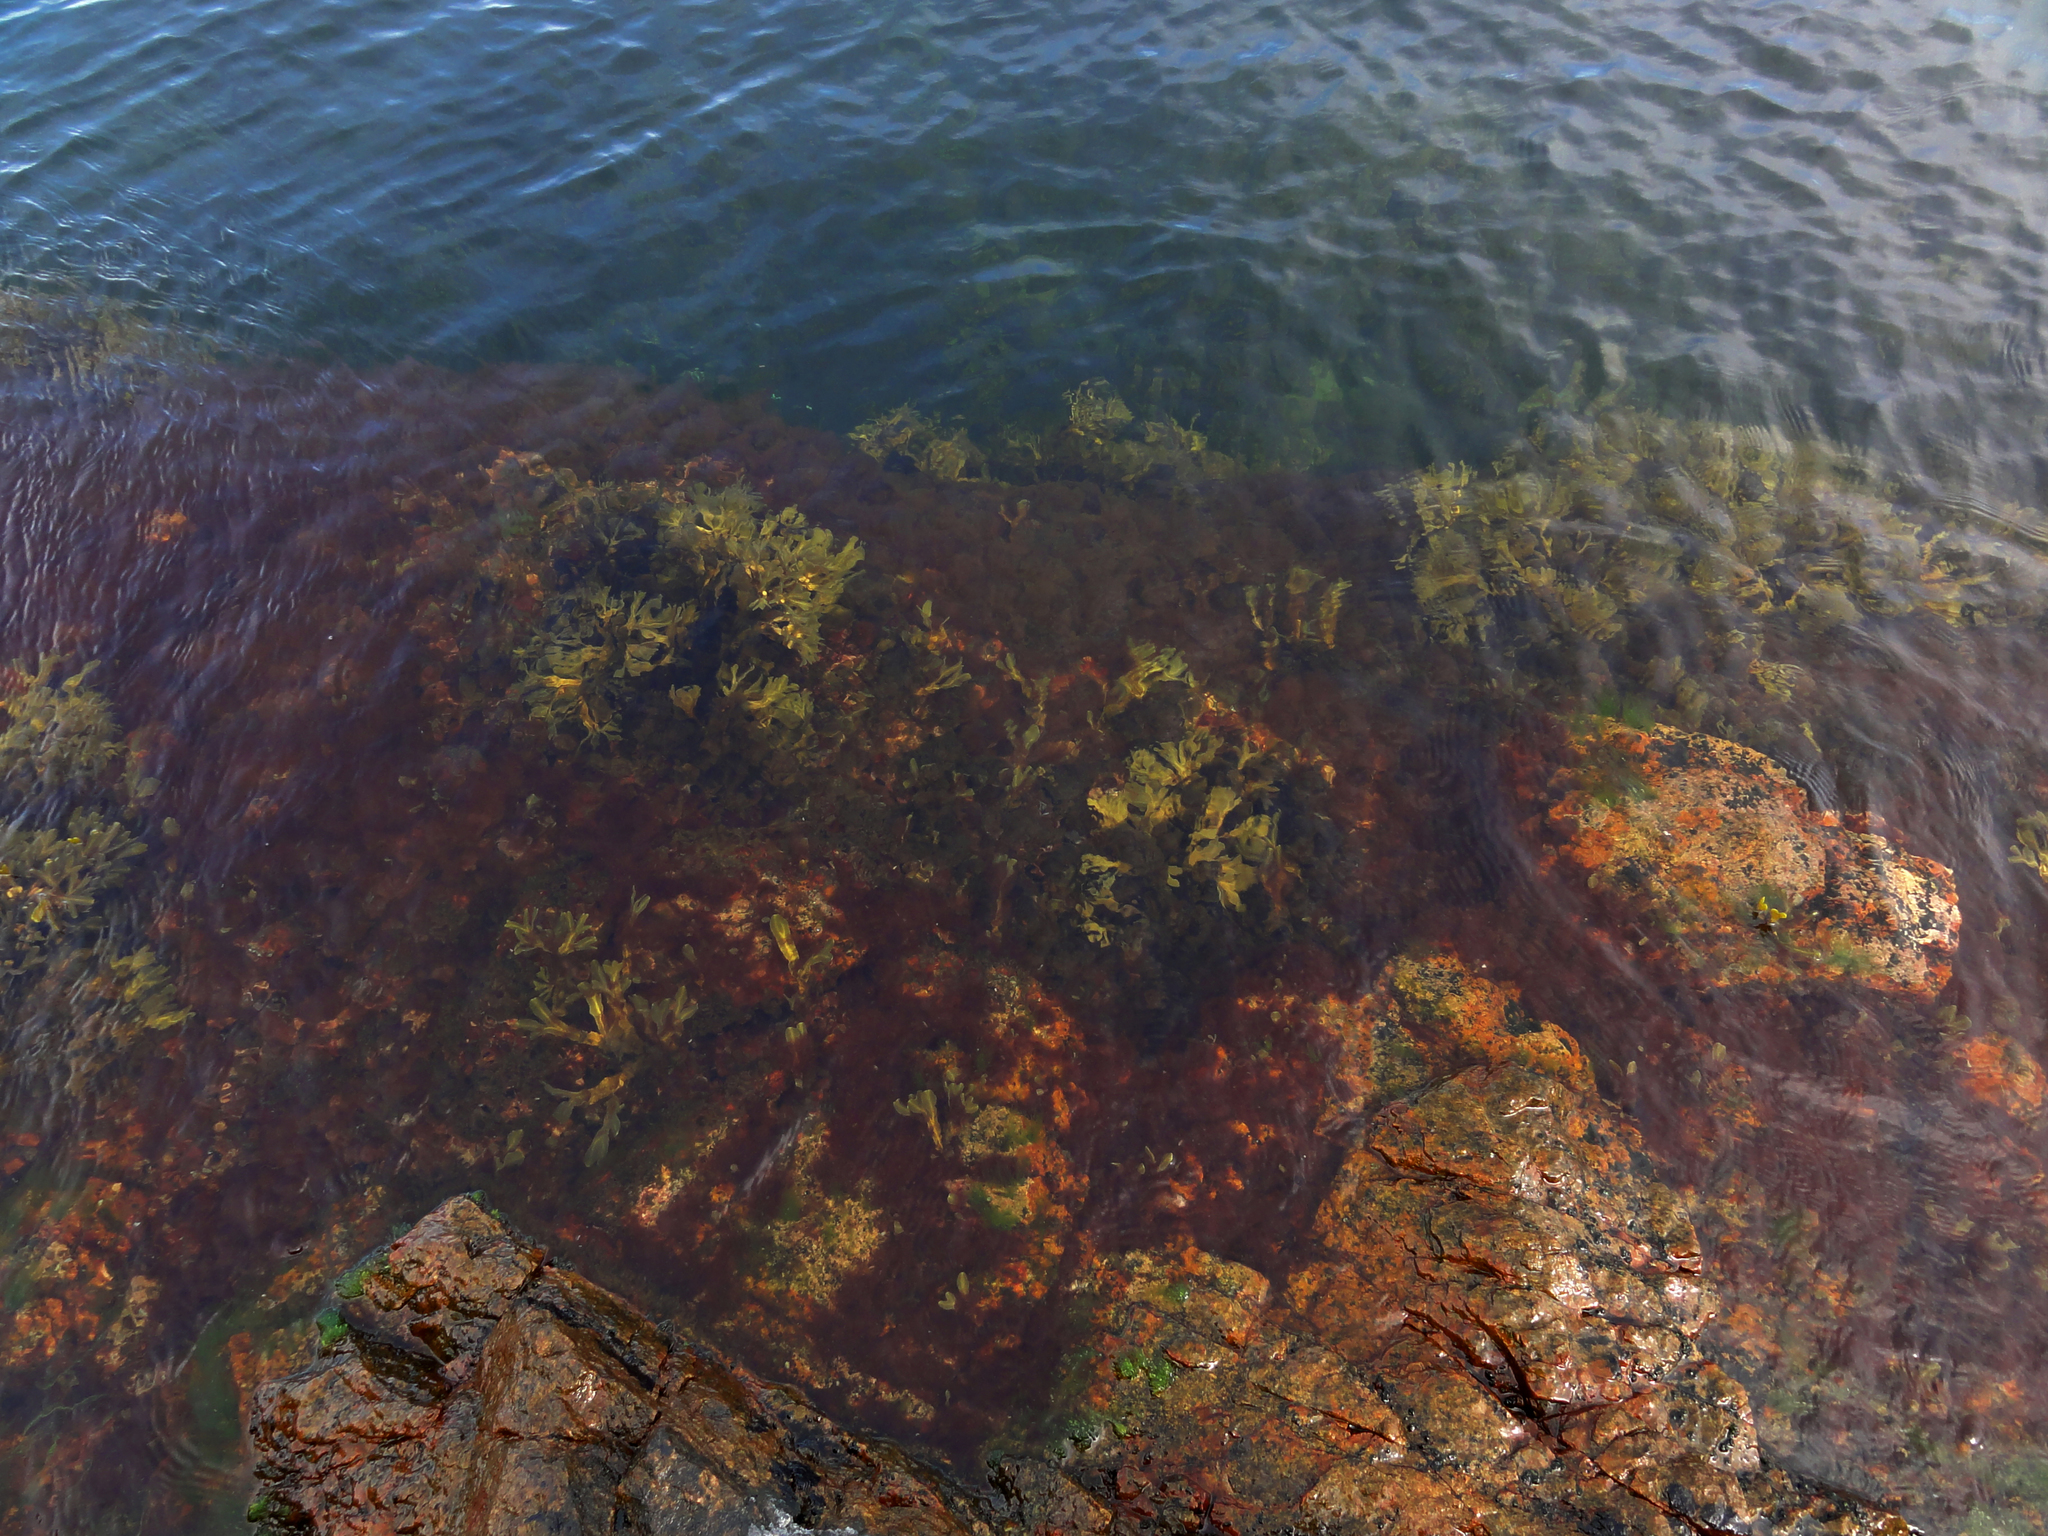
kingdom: Chromista
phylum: Ochrophyta
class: Phaeophyceae
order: Fucales
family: Fucaceae
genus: Fucus
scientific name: Fucus vesiculosus
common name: Bladder wrack
